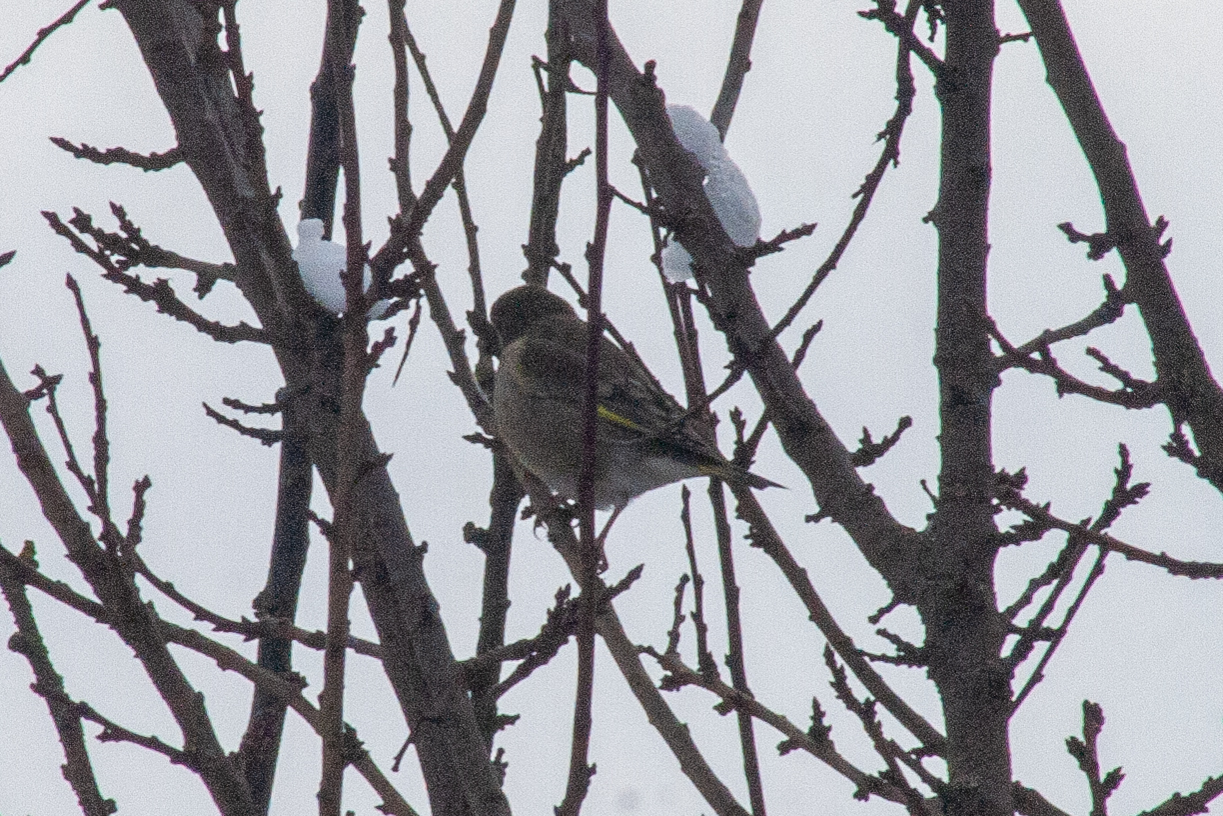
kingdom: Plantae
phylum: Tracheophyta
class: Liliopsida
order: Poales
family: Poaceae
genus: Chloris
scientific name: Chloris chloris
